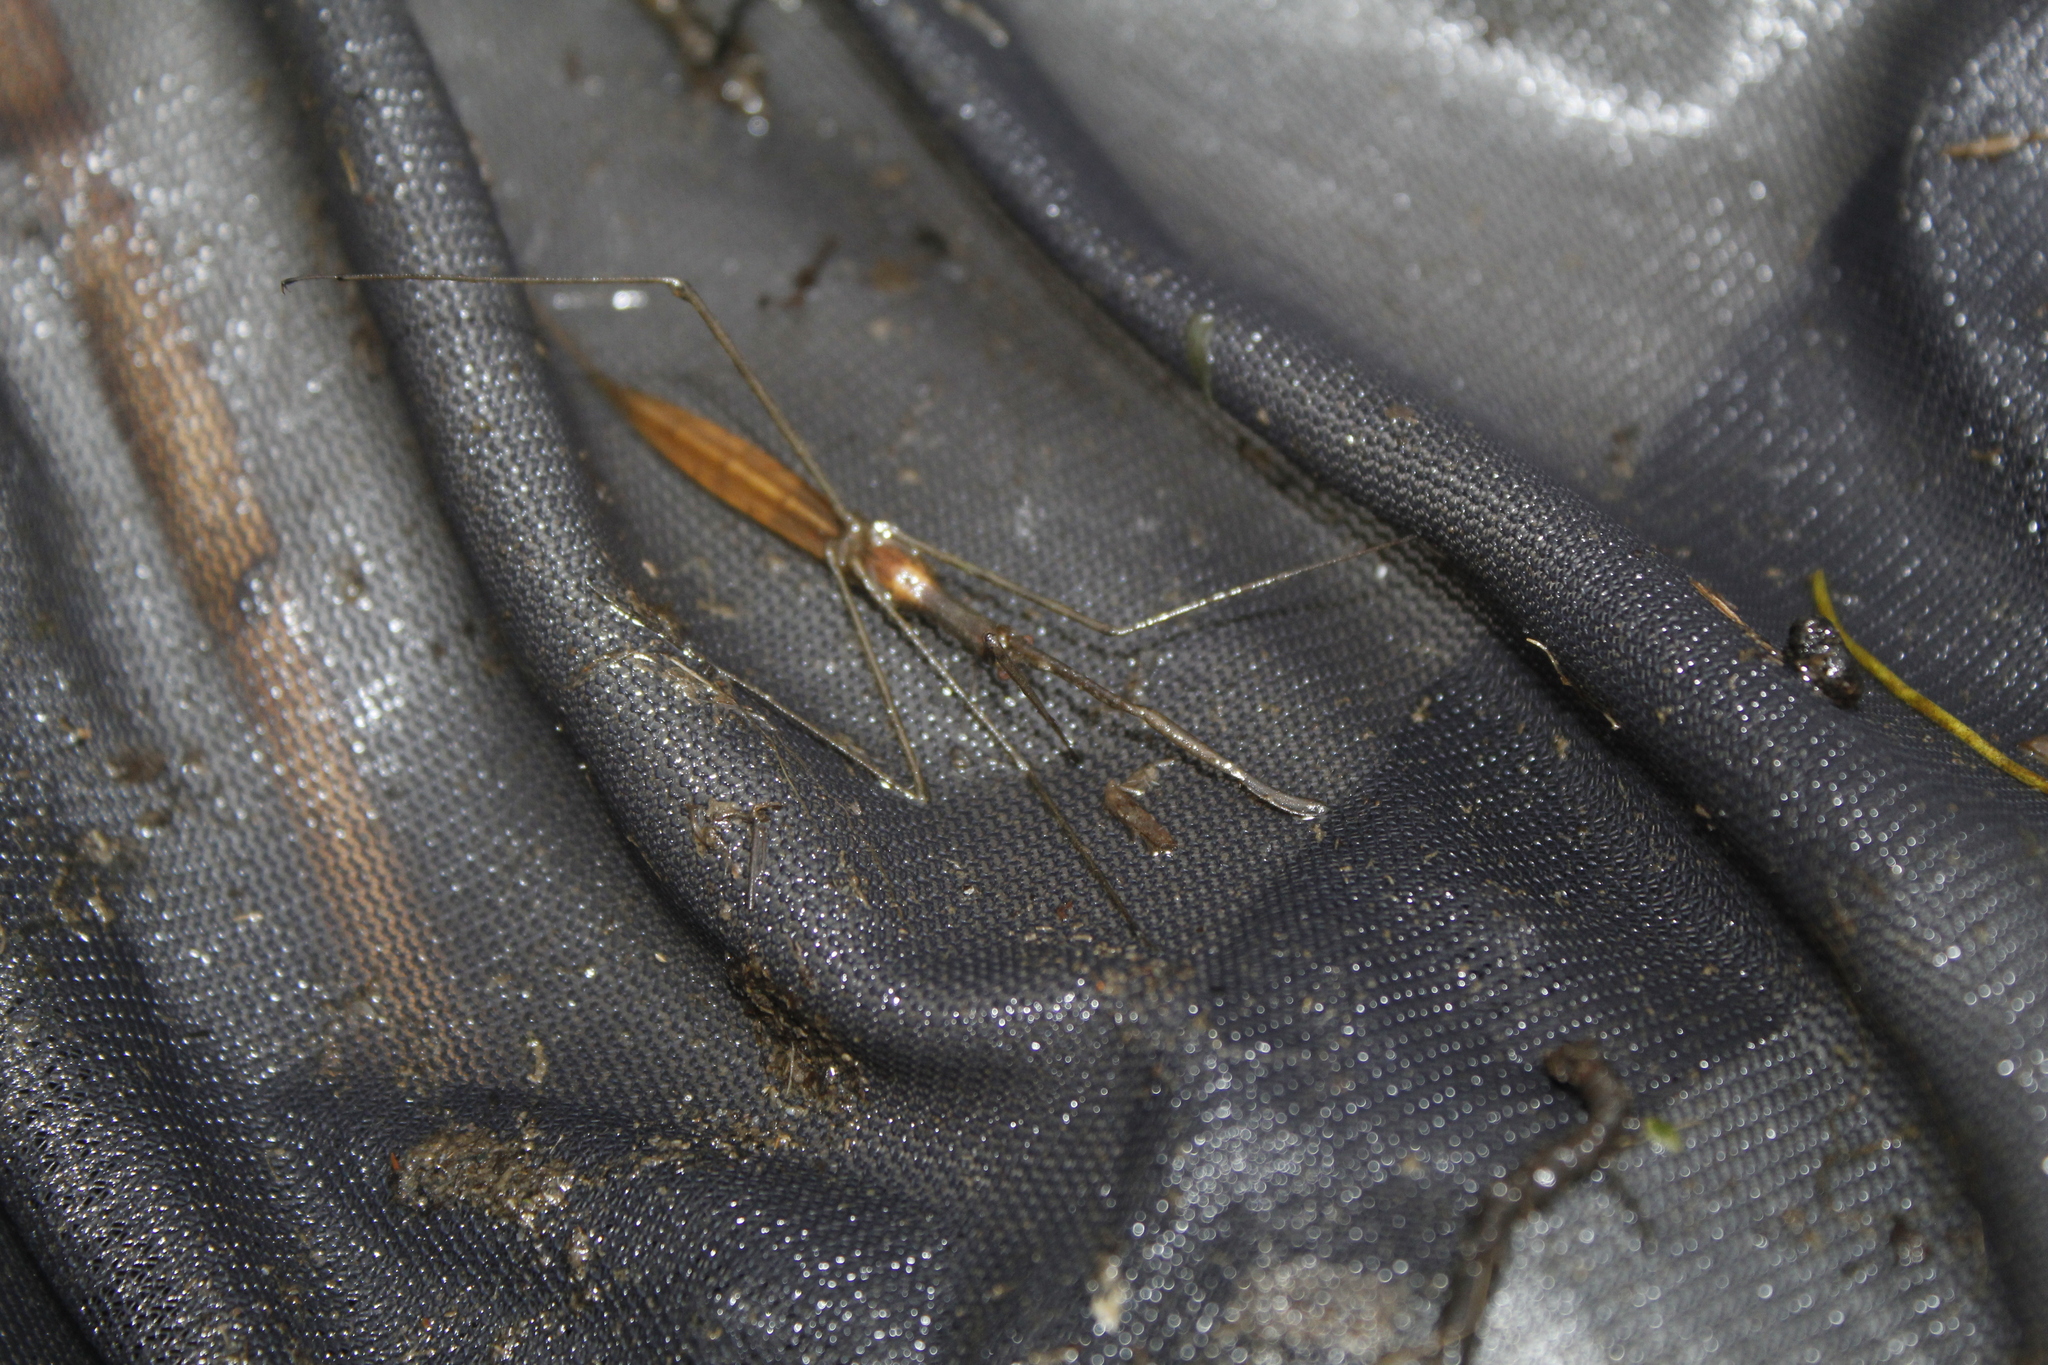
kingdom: Animalia
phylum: Arthropoda
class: Insecta
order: Hemiptera
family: Nepidae
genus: Ranatra
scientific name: Ranatra
